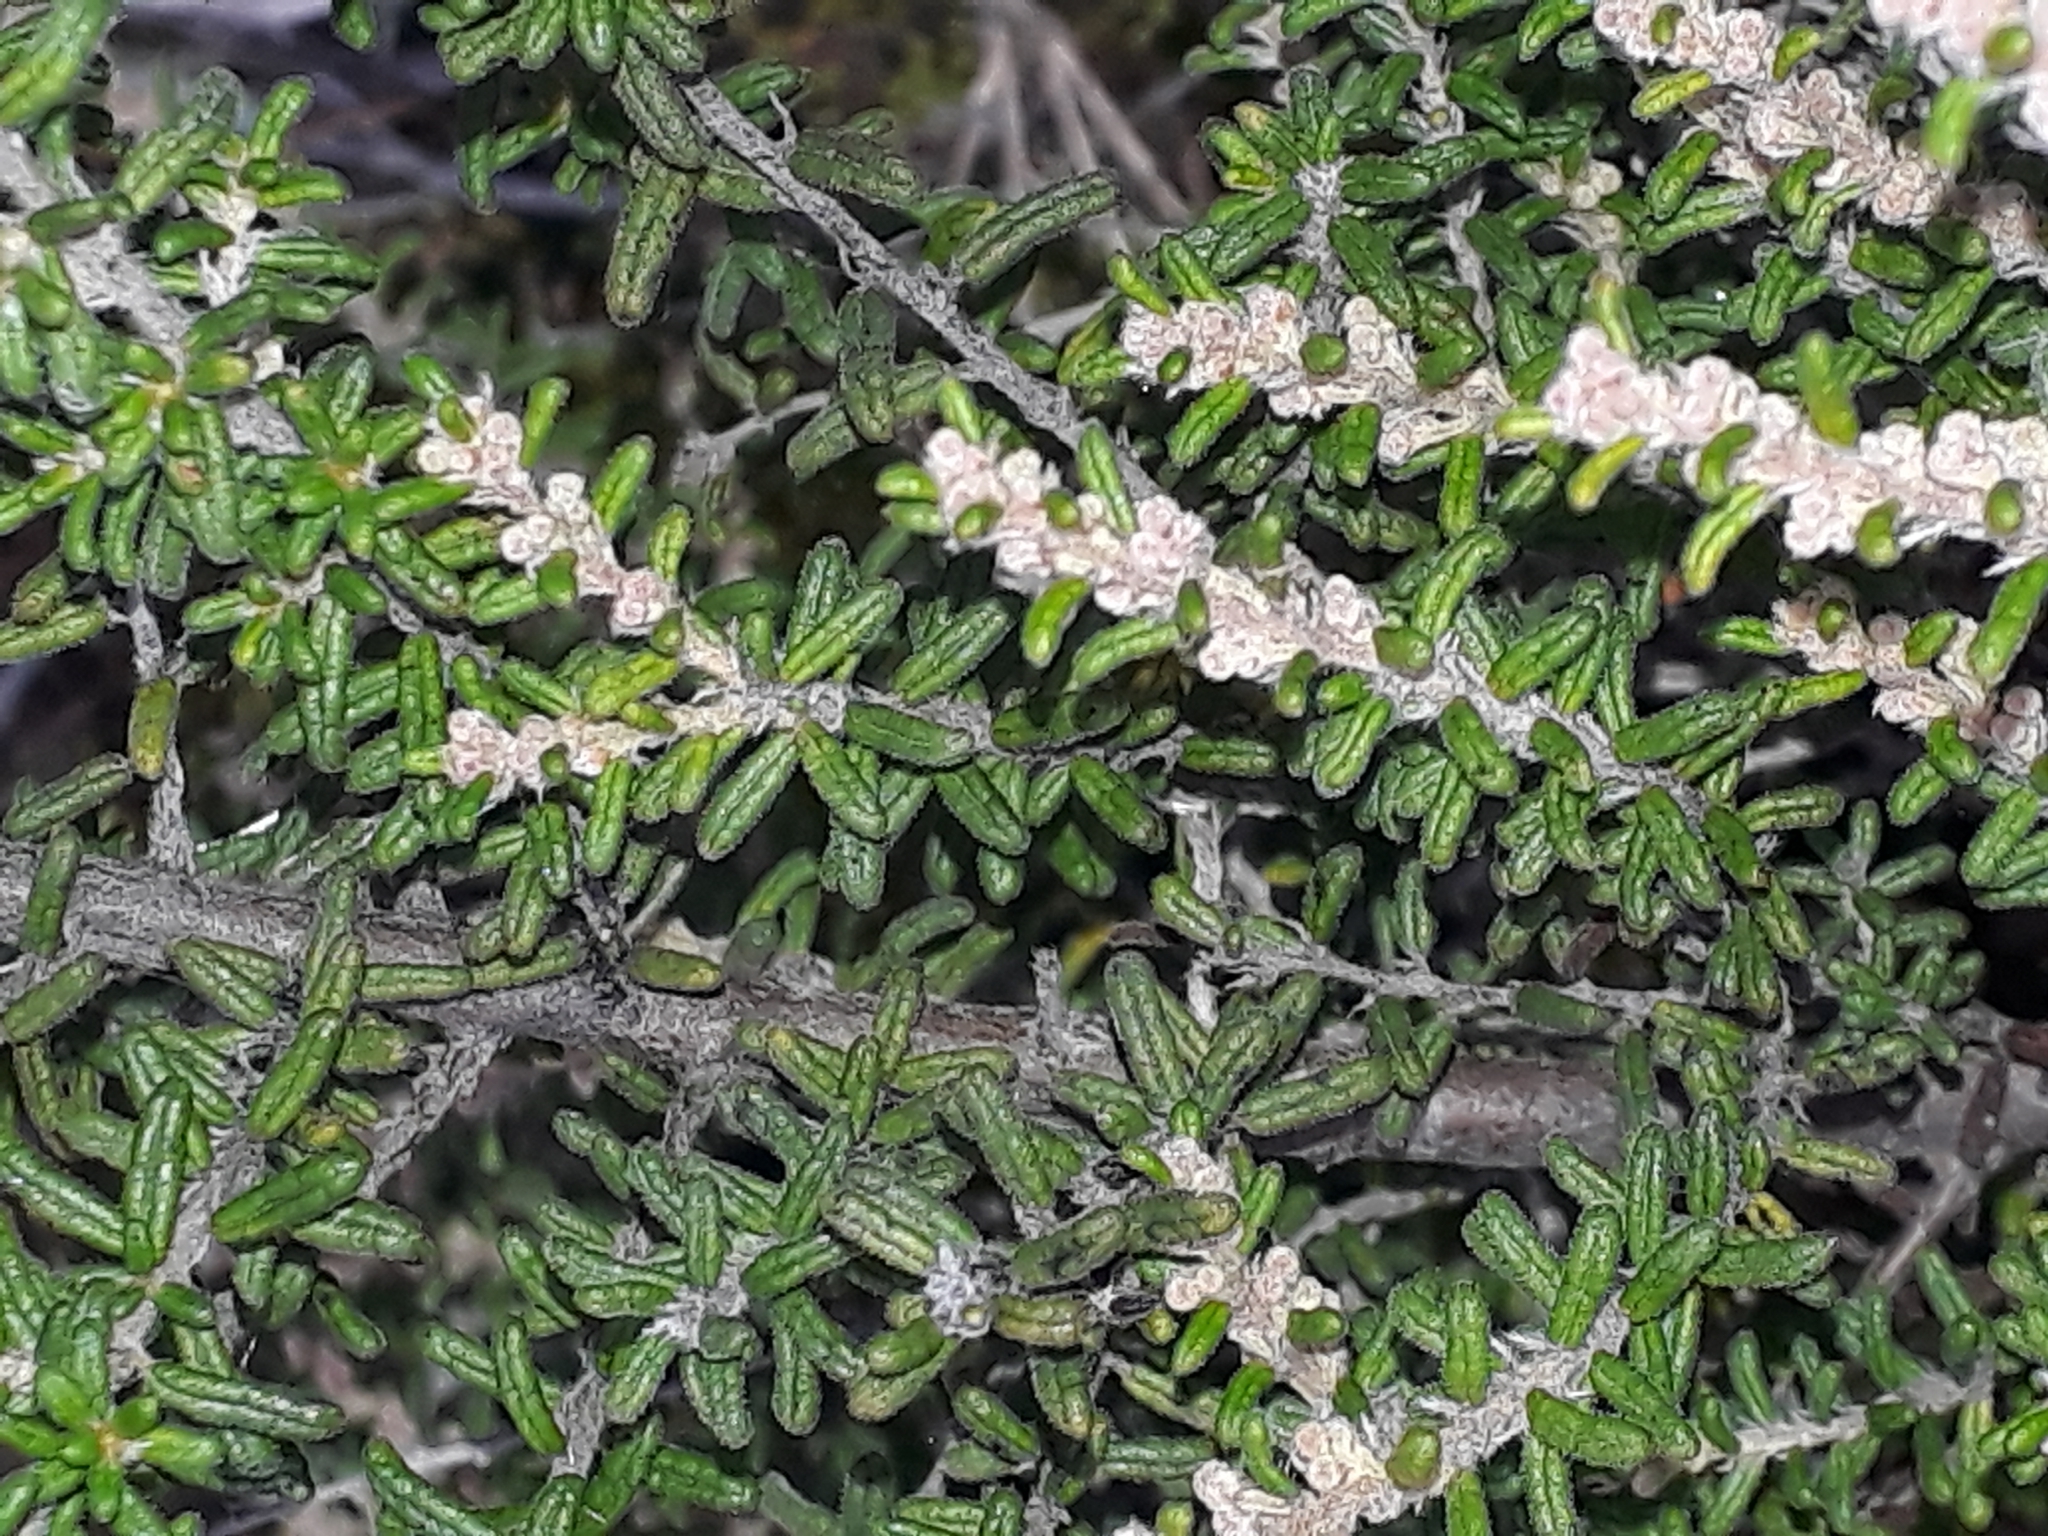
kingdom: Plantae
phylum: Tracheophyta
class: Magnoliopsida
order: Rosales
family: Rhamnaceae
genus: Pomaderris
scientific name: Pomaderris amoena
